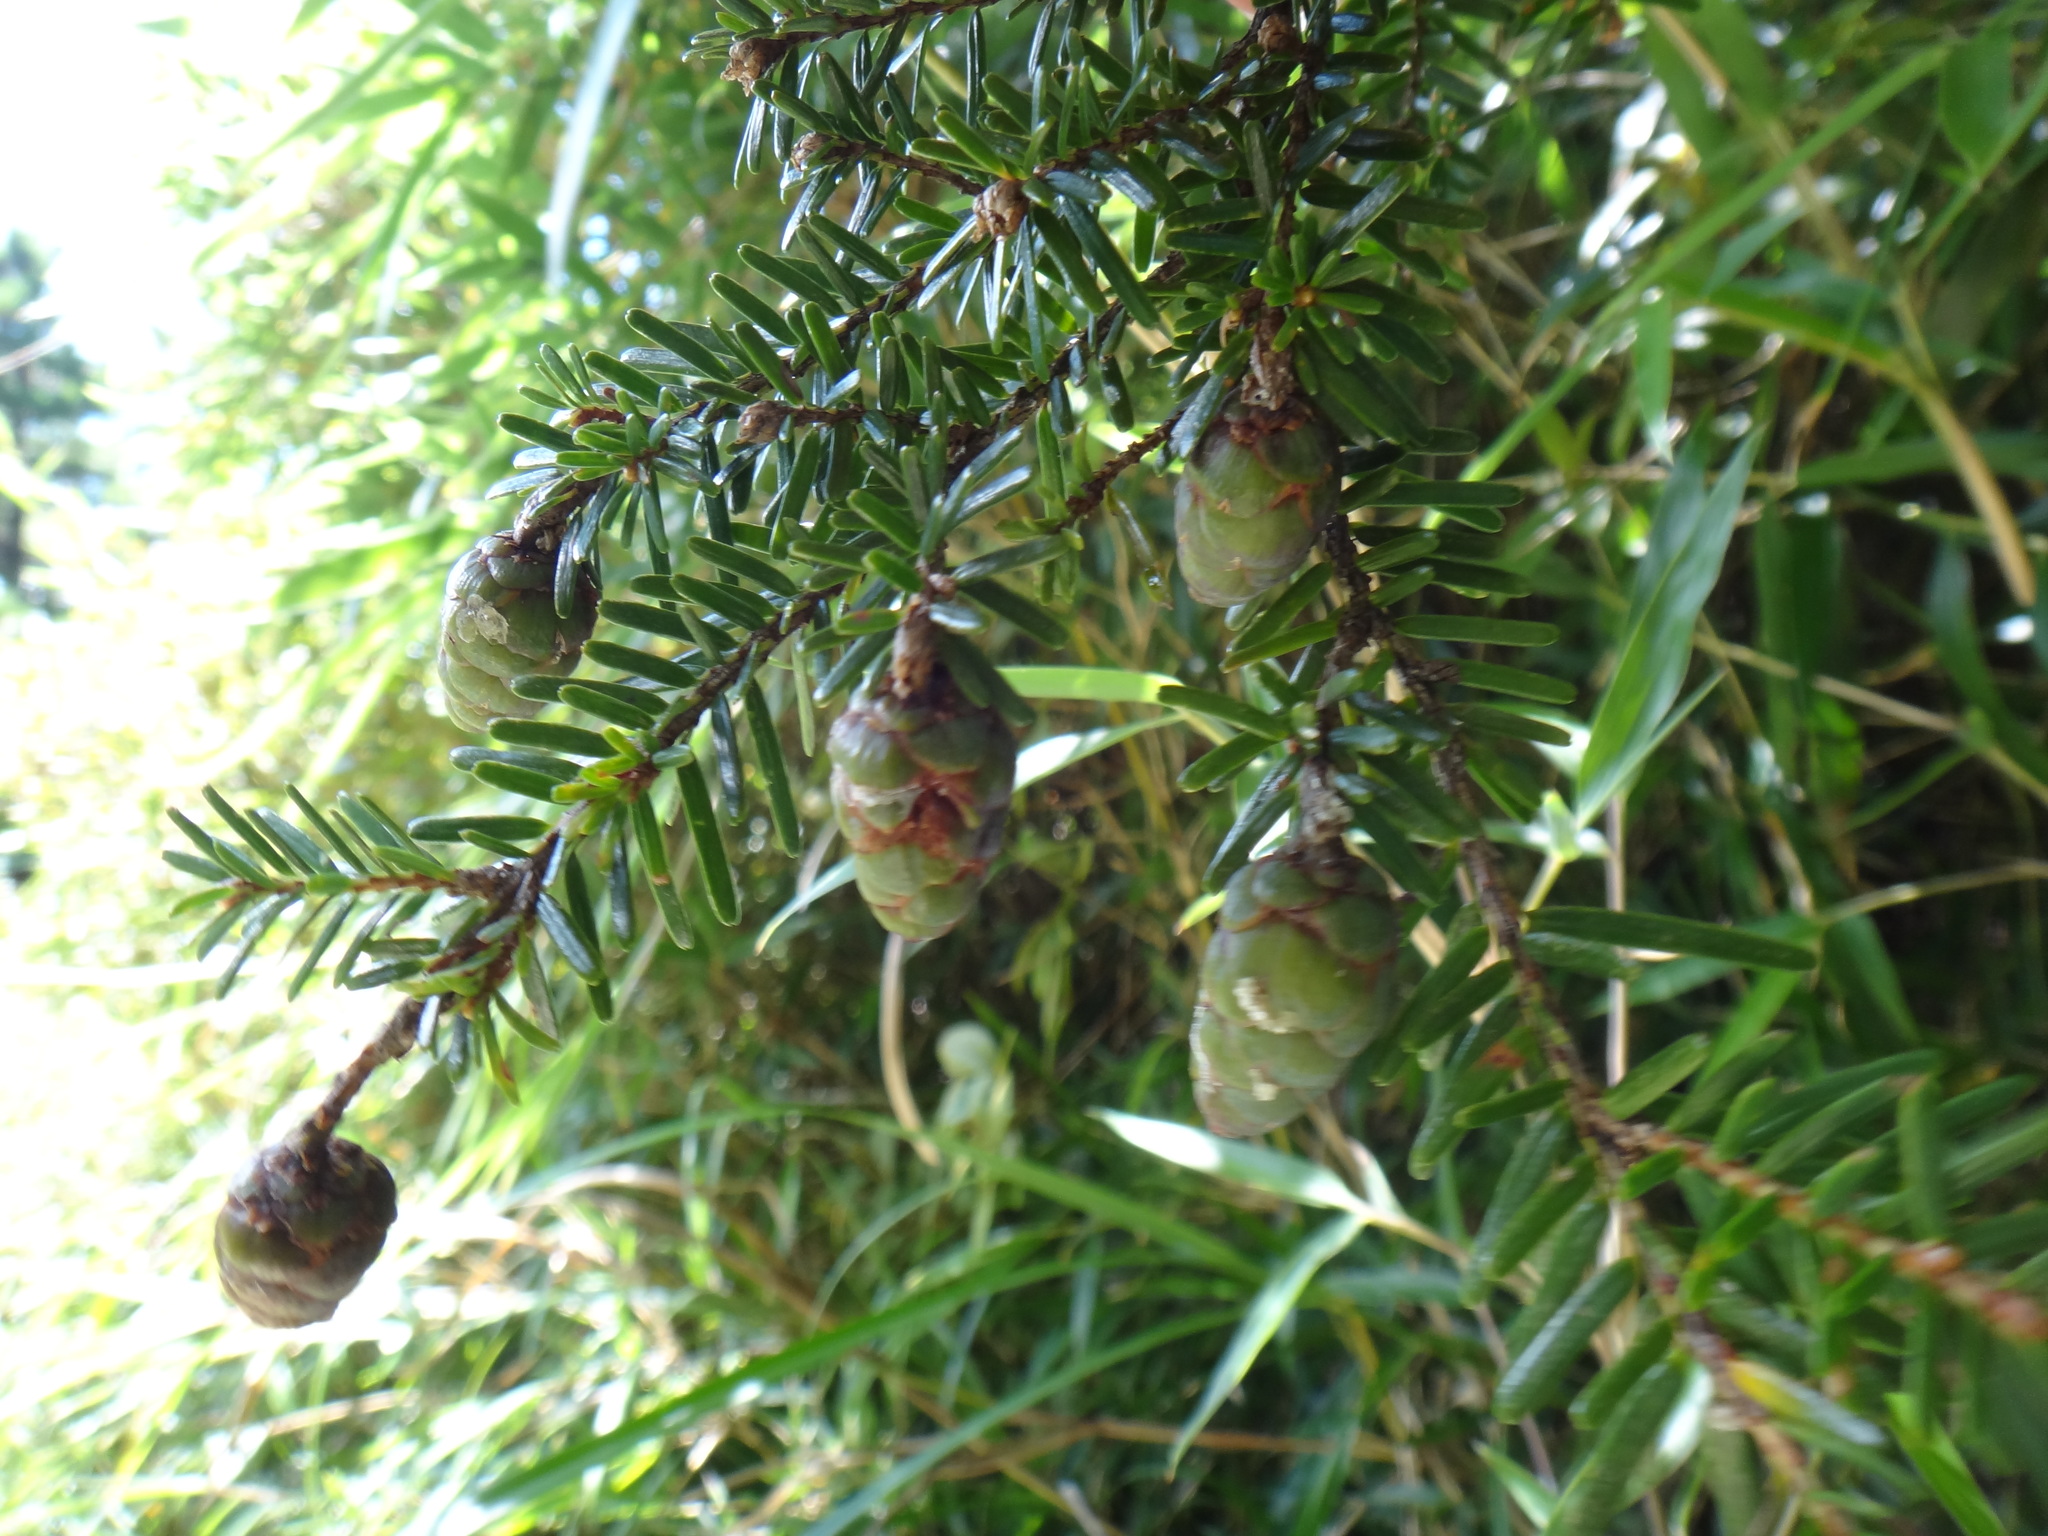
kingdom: Plantae
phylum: Tracheophyta
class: Pinopsida
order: Pinales
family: Pinaceae
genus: Tsuga
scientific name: Tsuga chinensis
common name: Chinese hemlock
